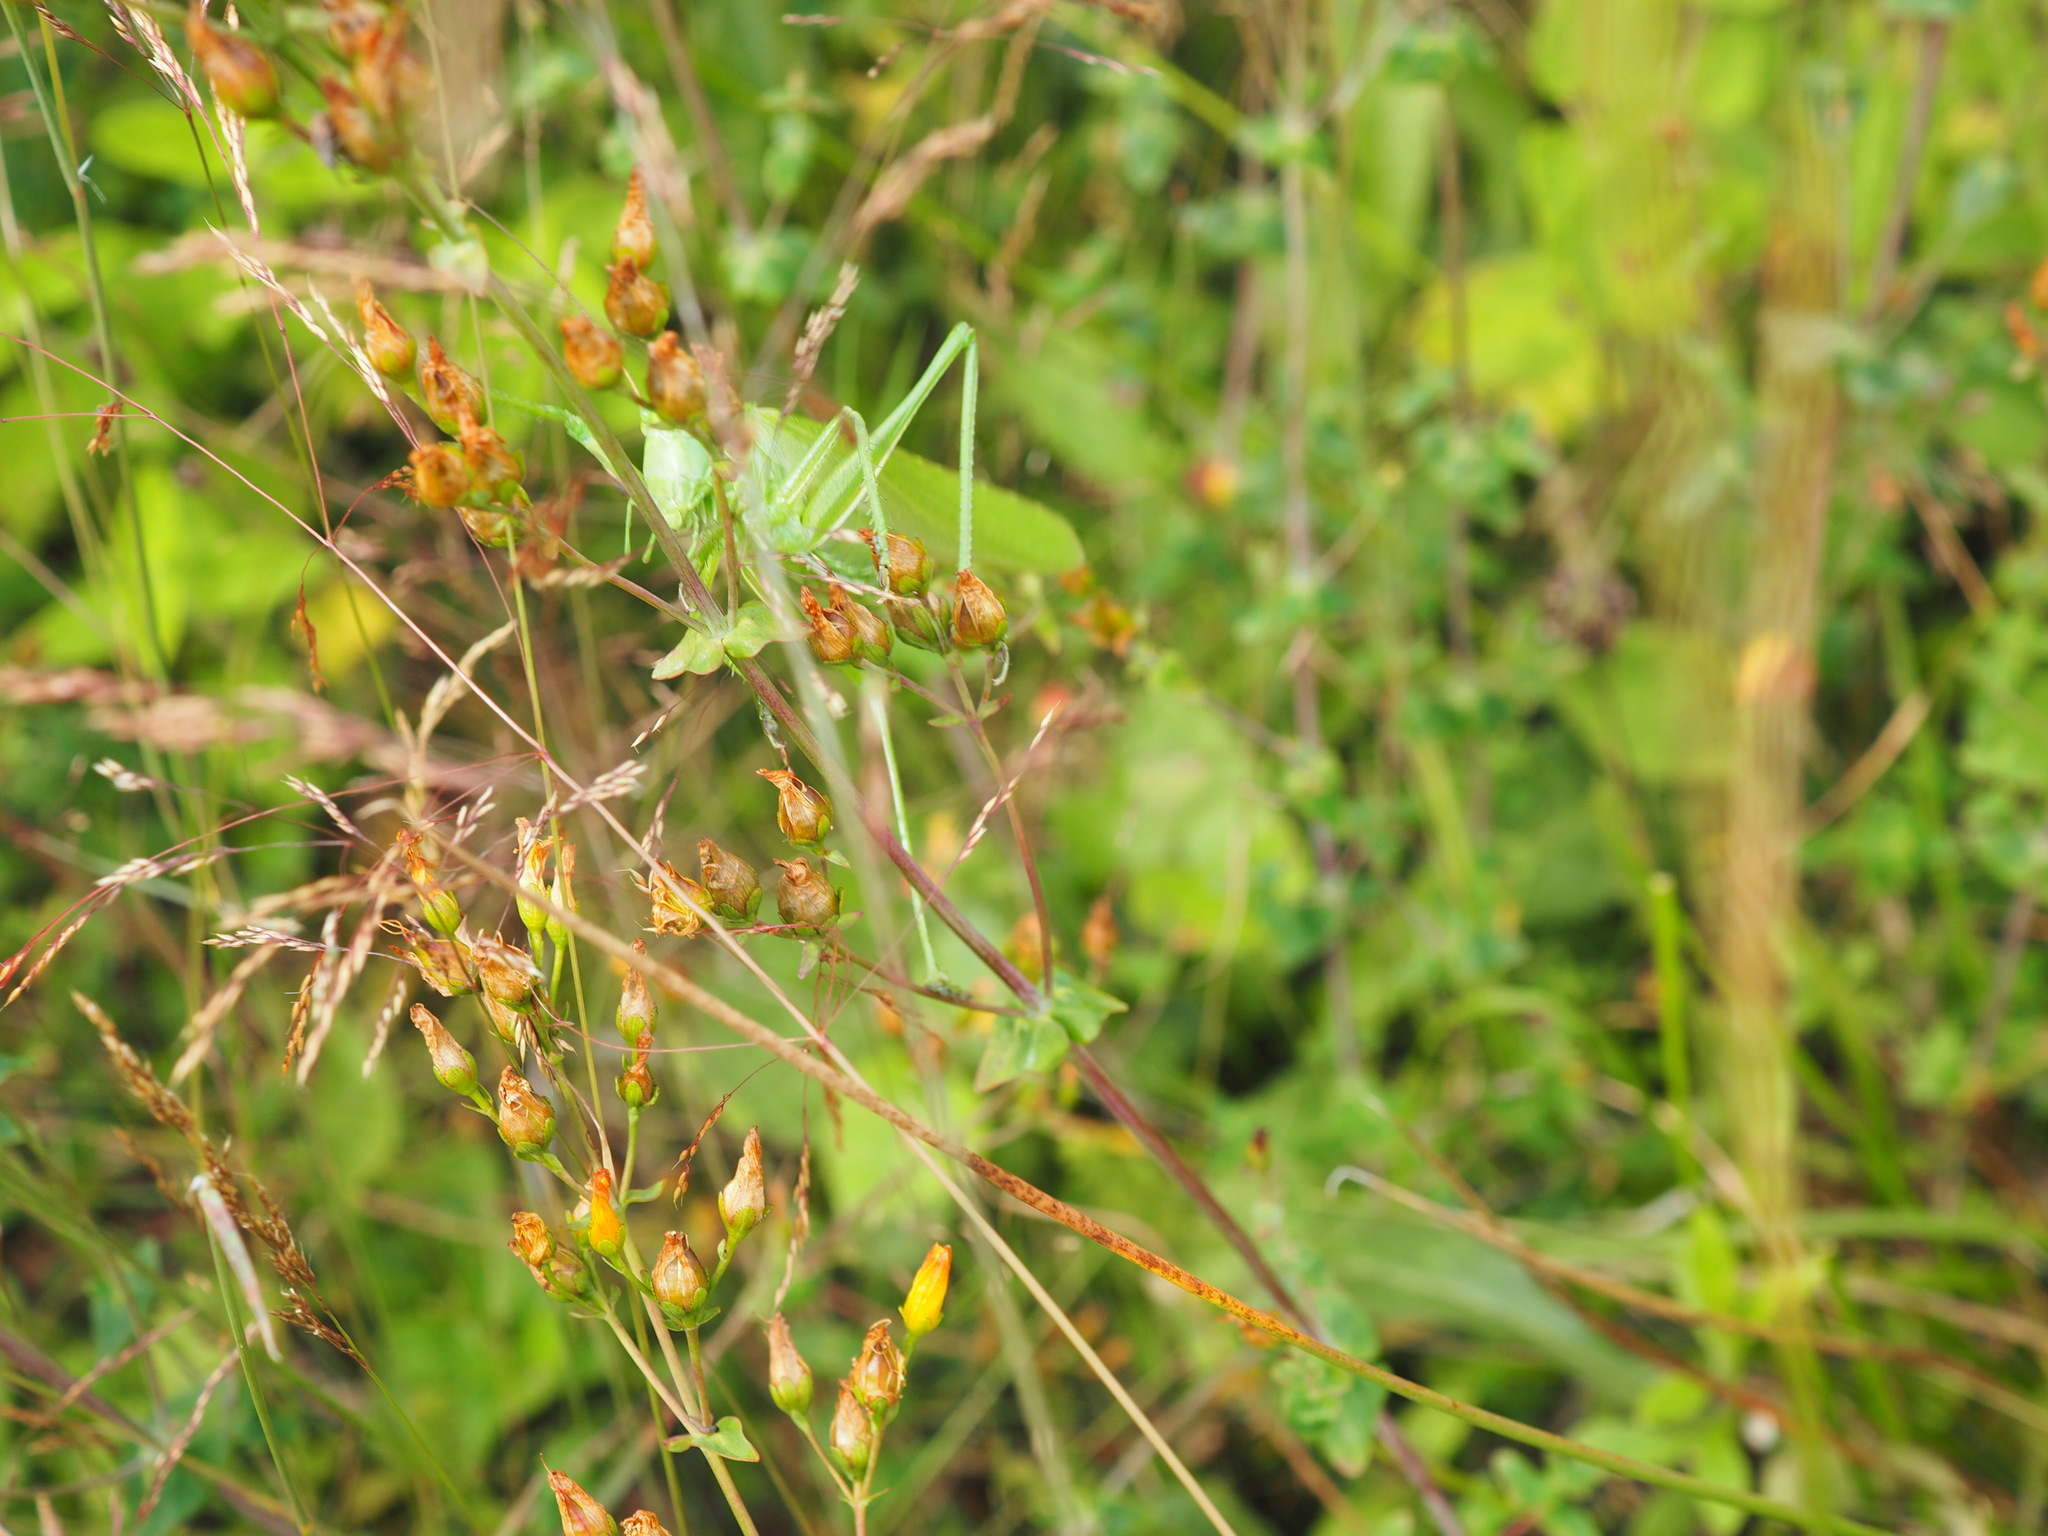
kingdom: Animalia
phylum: Arthropoda
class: Insecta
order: Orthoptera
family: Tettigoniidae
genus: Tettigonia
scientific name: Tettigonia viridissima
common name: Great green bush-cricket
